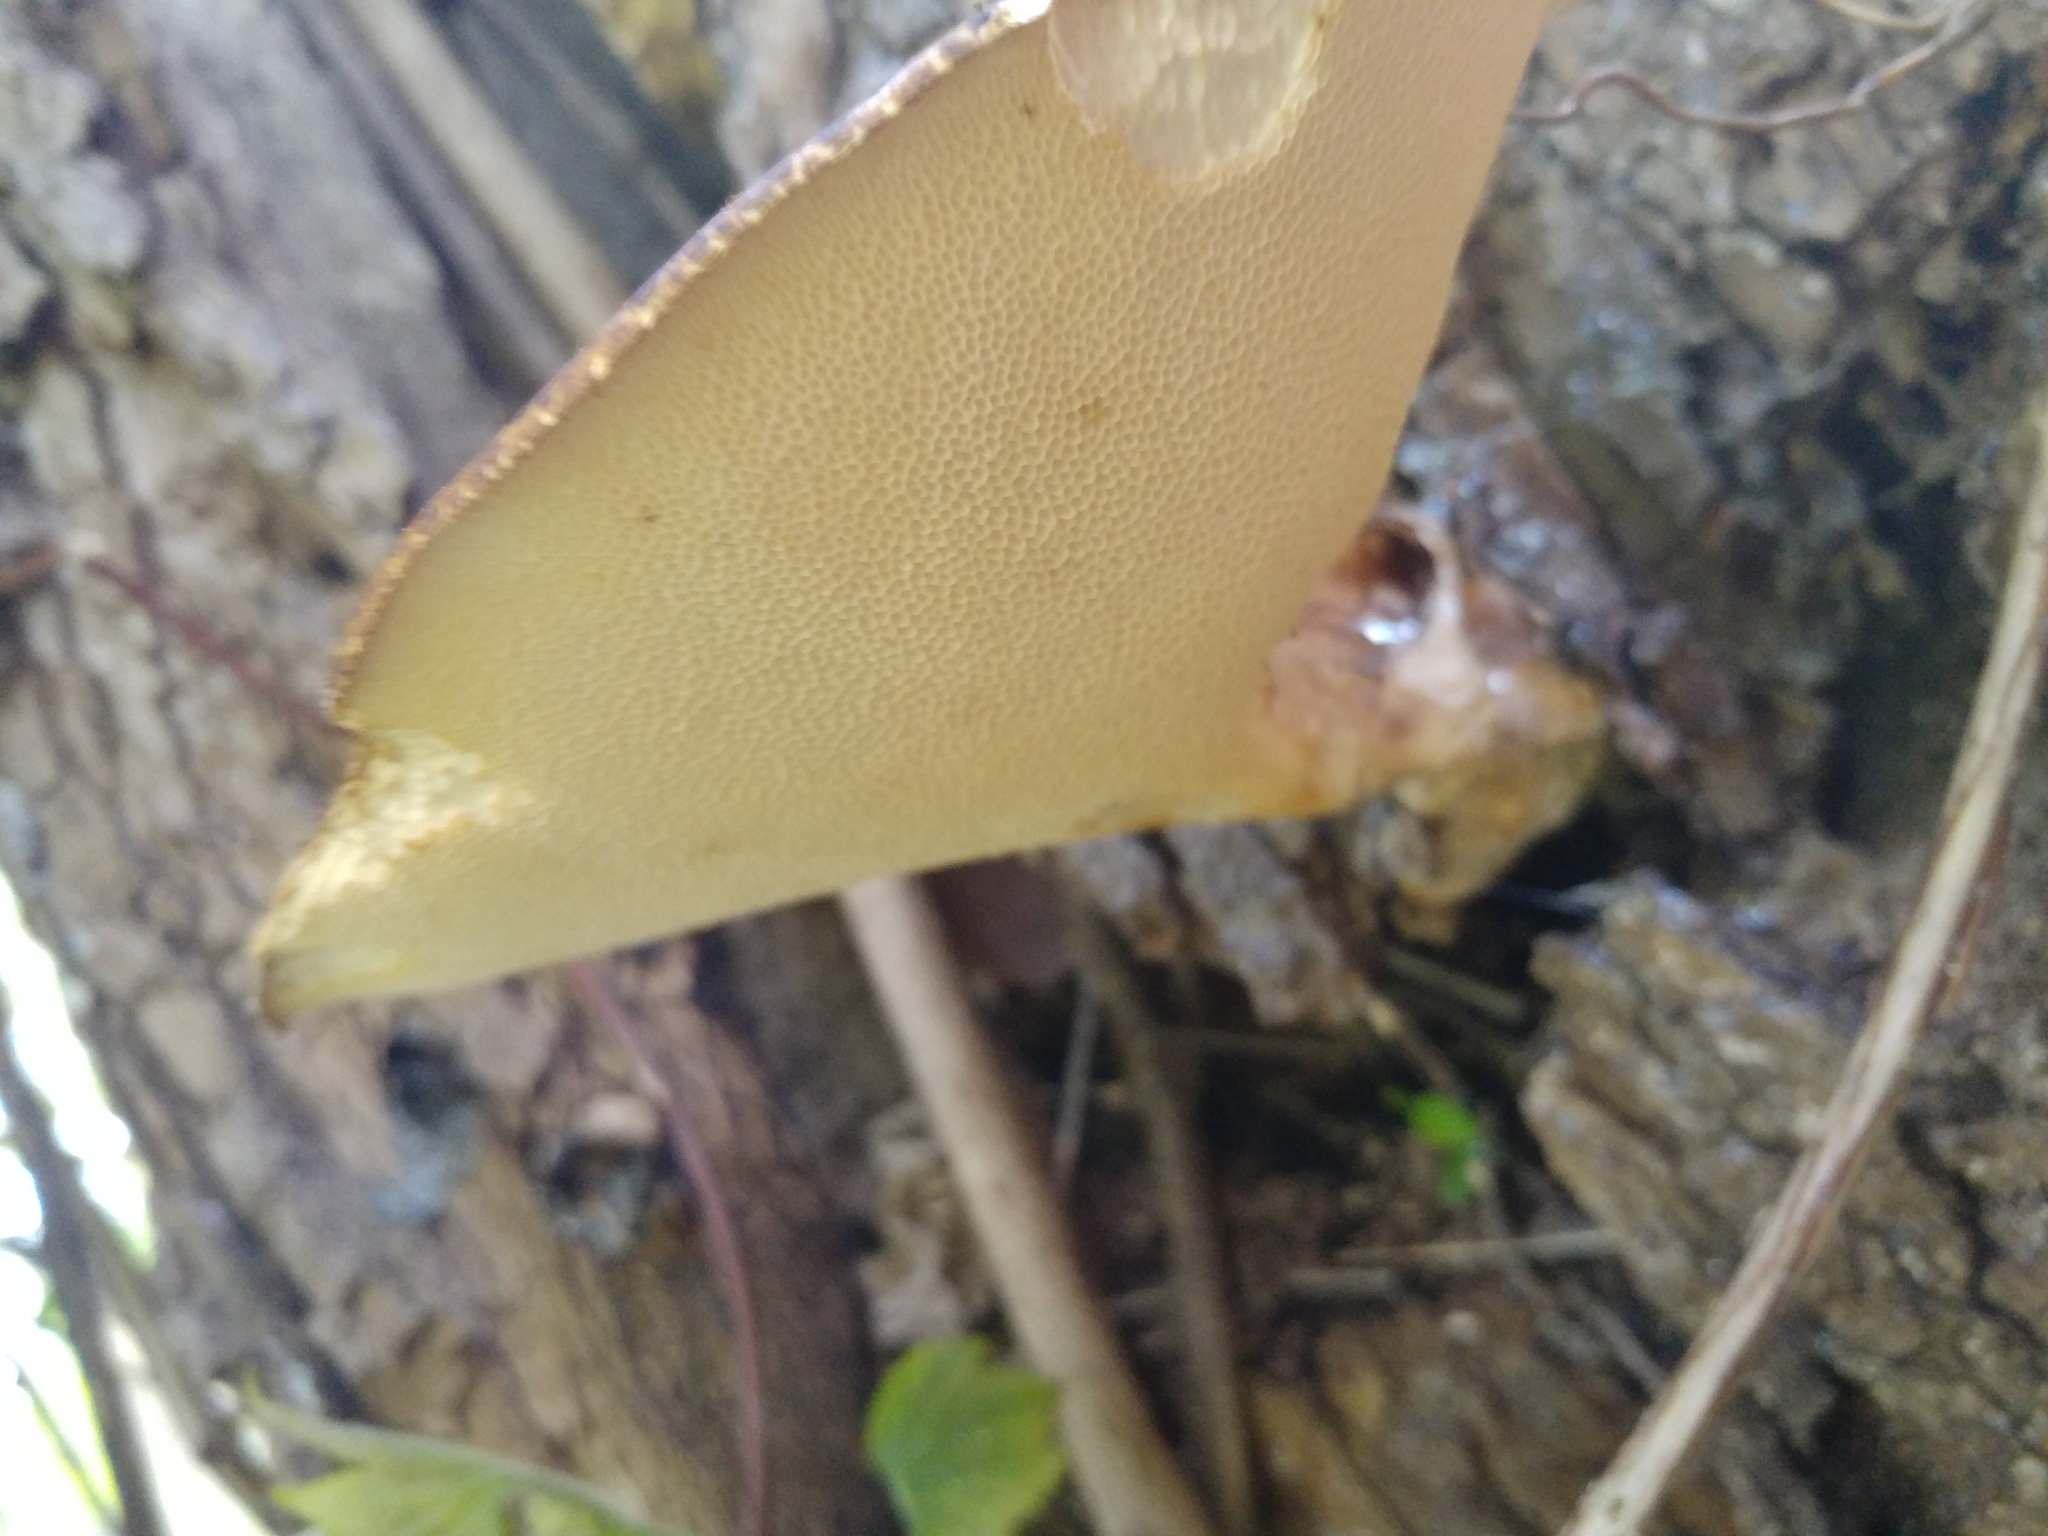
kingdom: Fungi
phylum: Basidiomycota
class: Agaricomycetes
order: Polyporales
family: Polyporaceae
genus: Cerioporus
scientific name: Cerioporus squamosus
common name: Dryad's saddle
